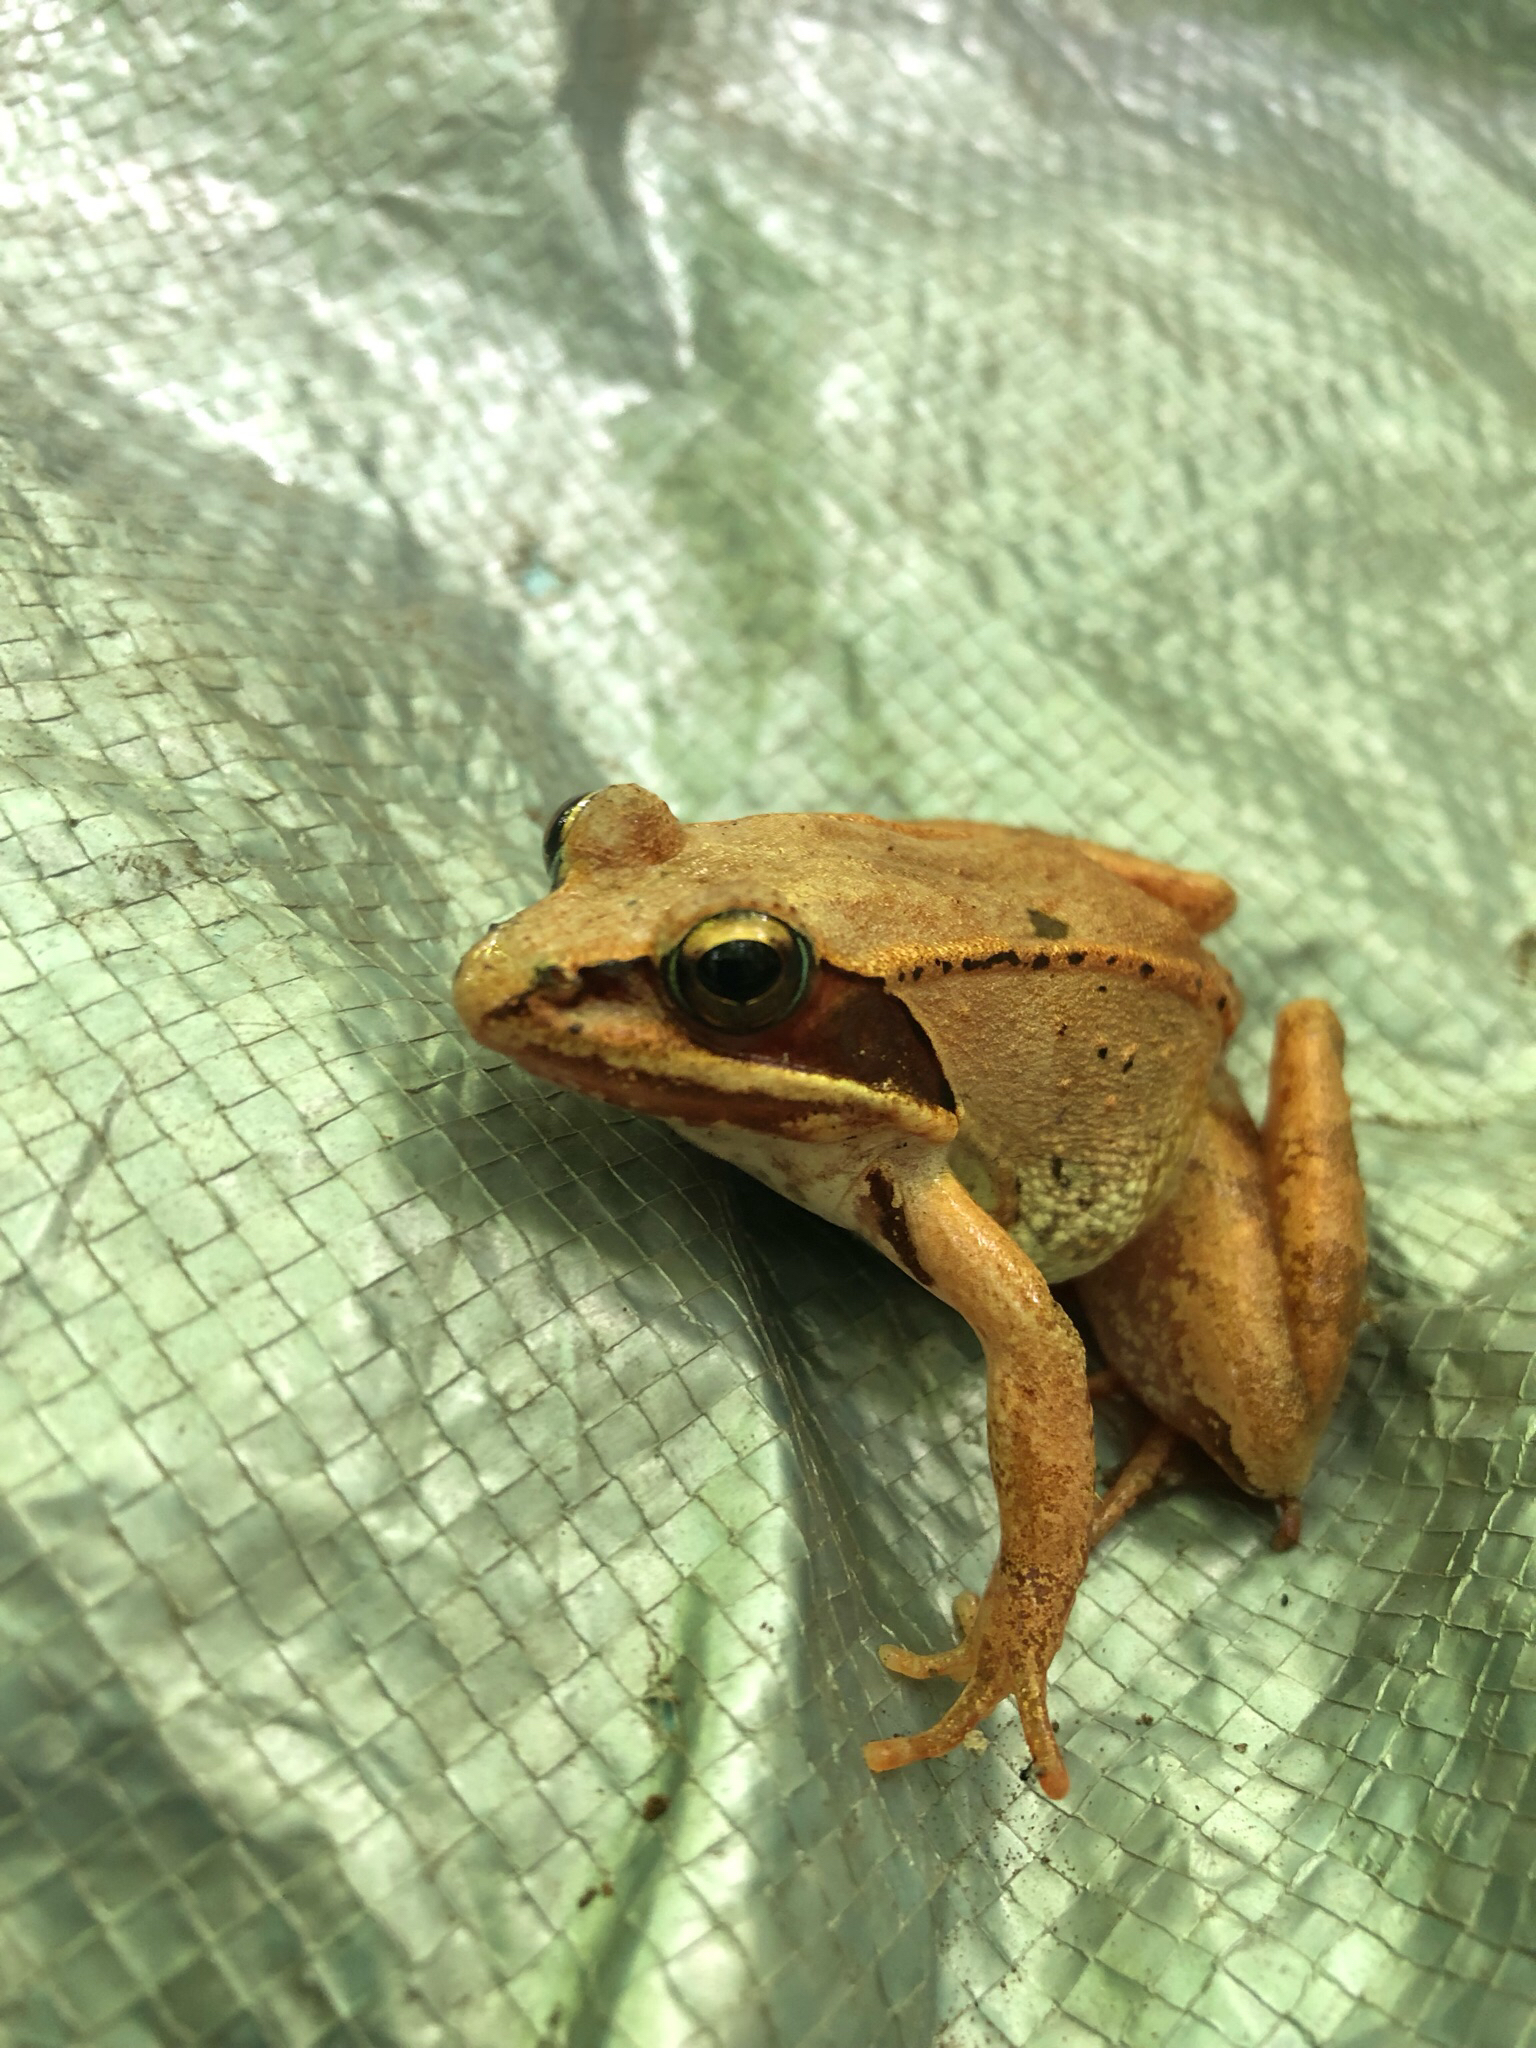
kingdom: Animalia
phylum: Chordata
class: Amphibia
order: Anura
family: Ranidae
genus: Lithobates
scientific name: Lithobates sylvaticus
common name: Wood frog
